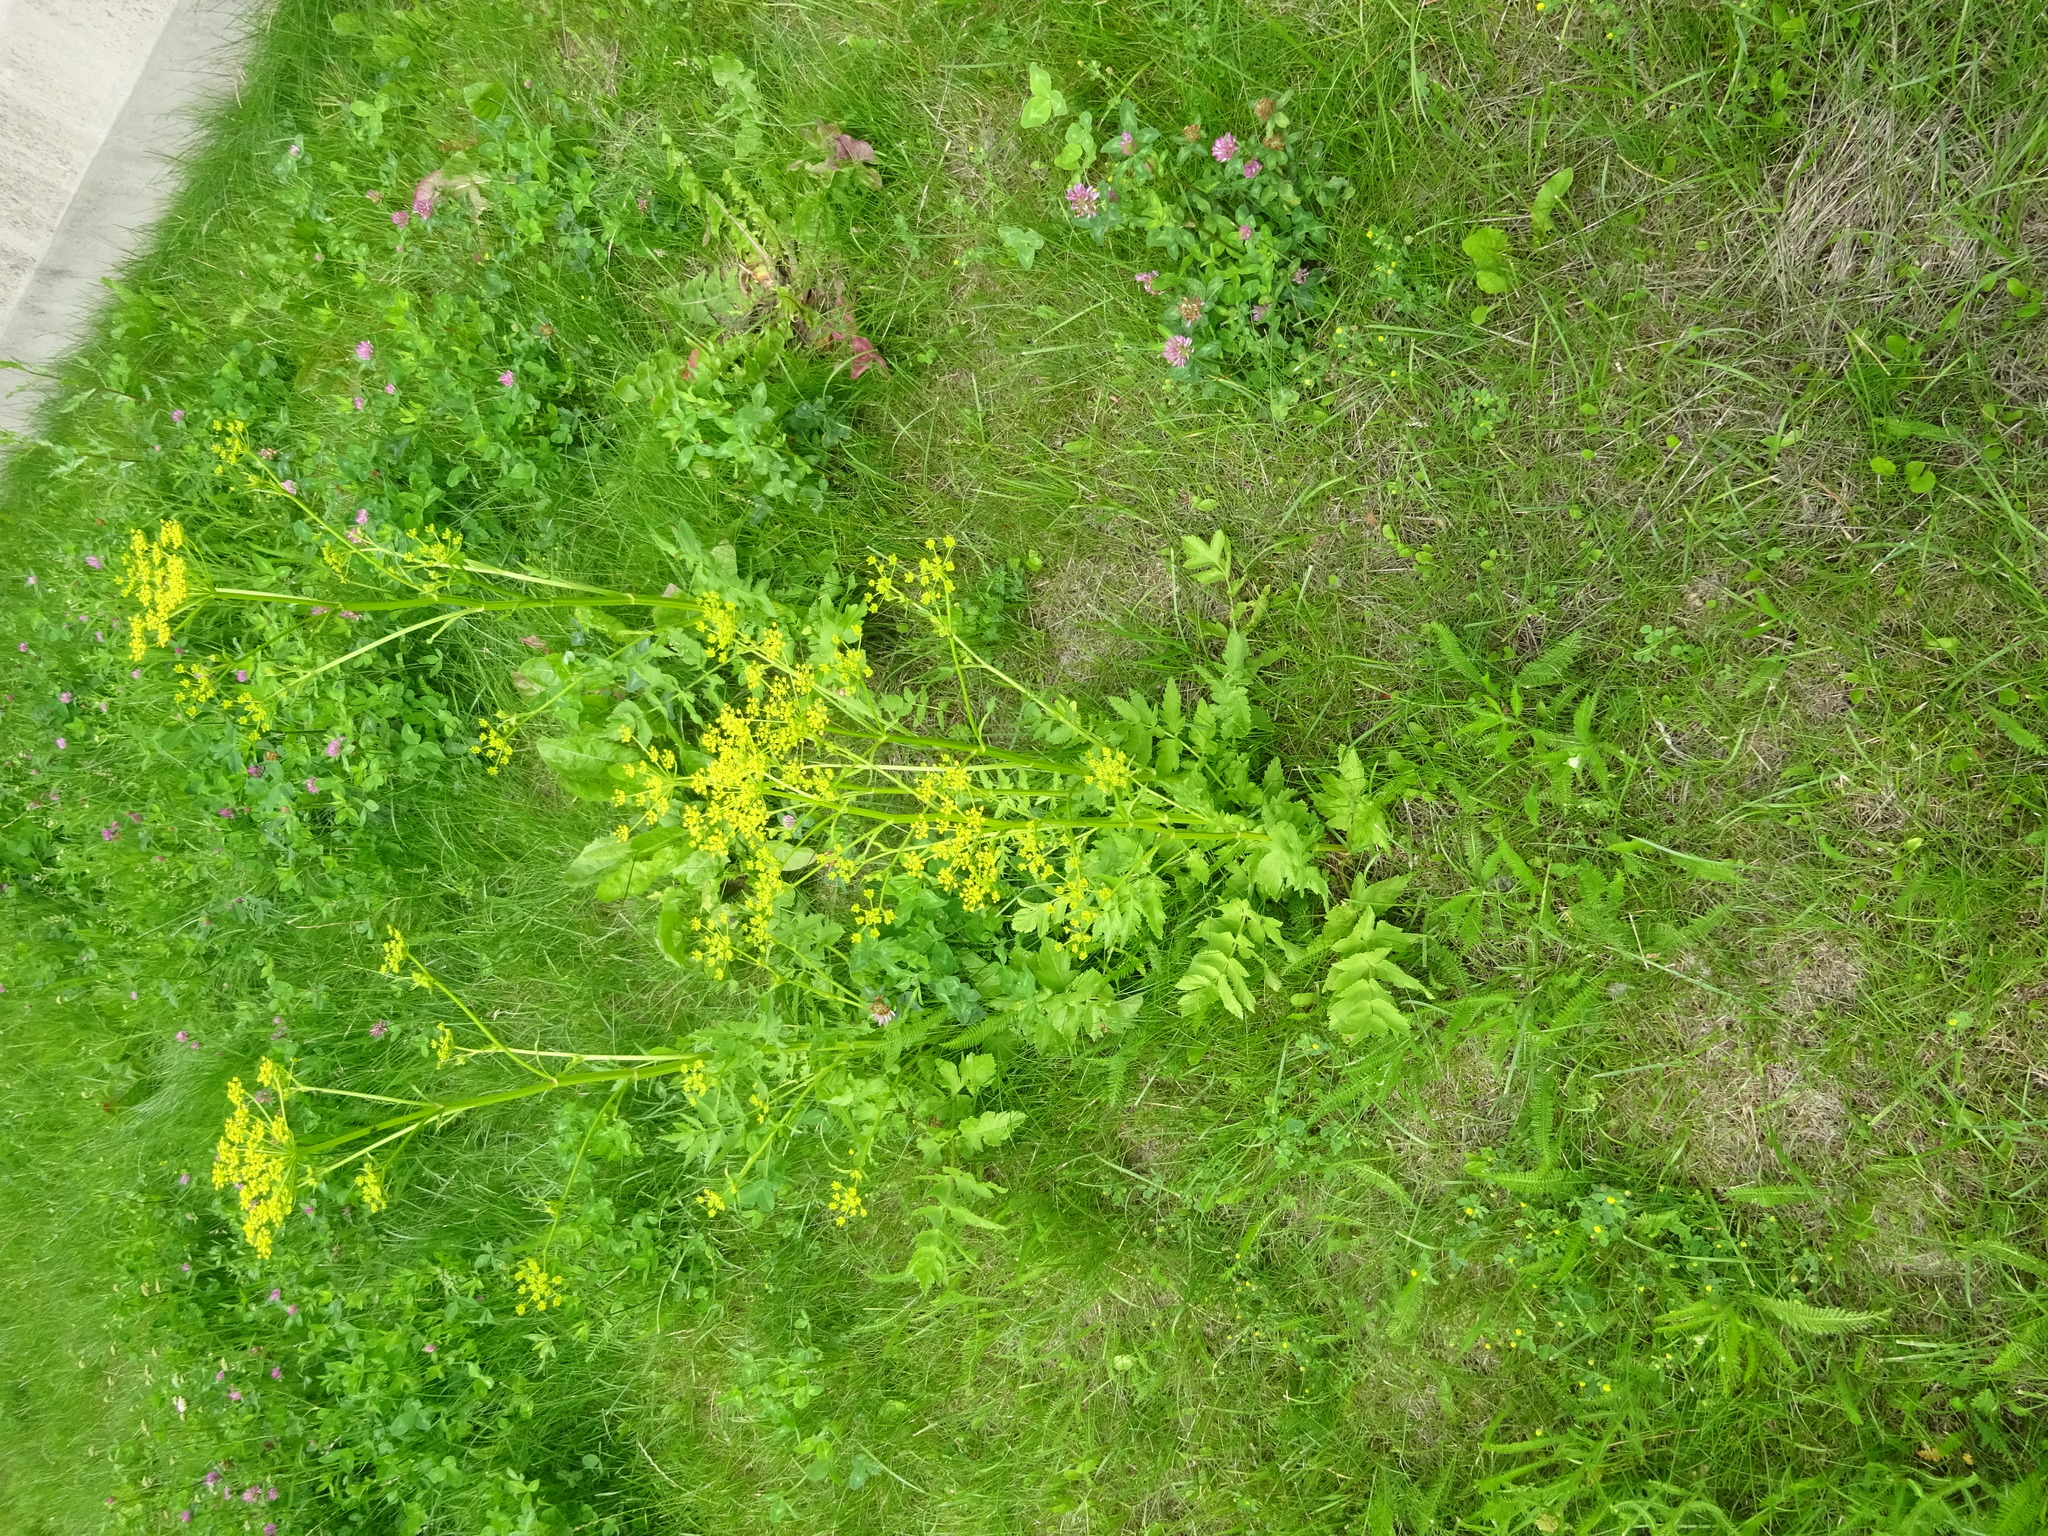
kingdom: Plantae
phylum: Tracheophyta
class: Magnoliopsida
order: Apiales
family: Apiaceae
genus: Pastinaca
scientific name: Pastinaca sativa
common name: Wild parsnip
